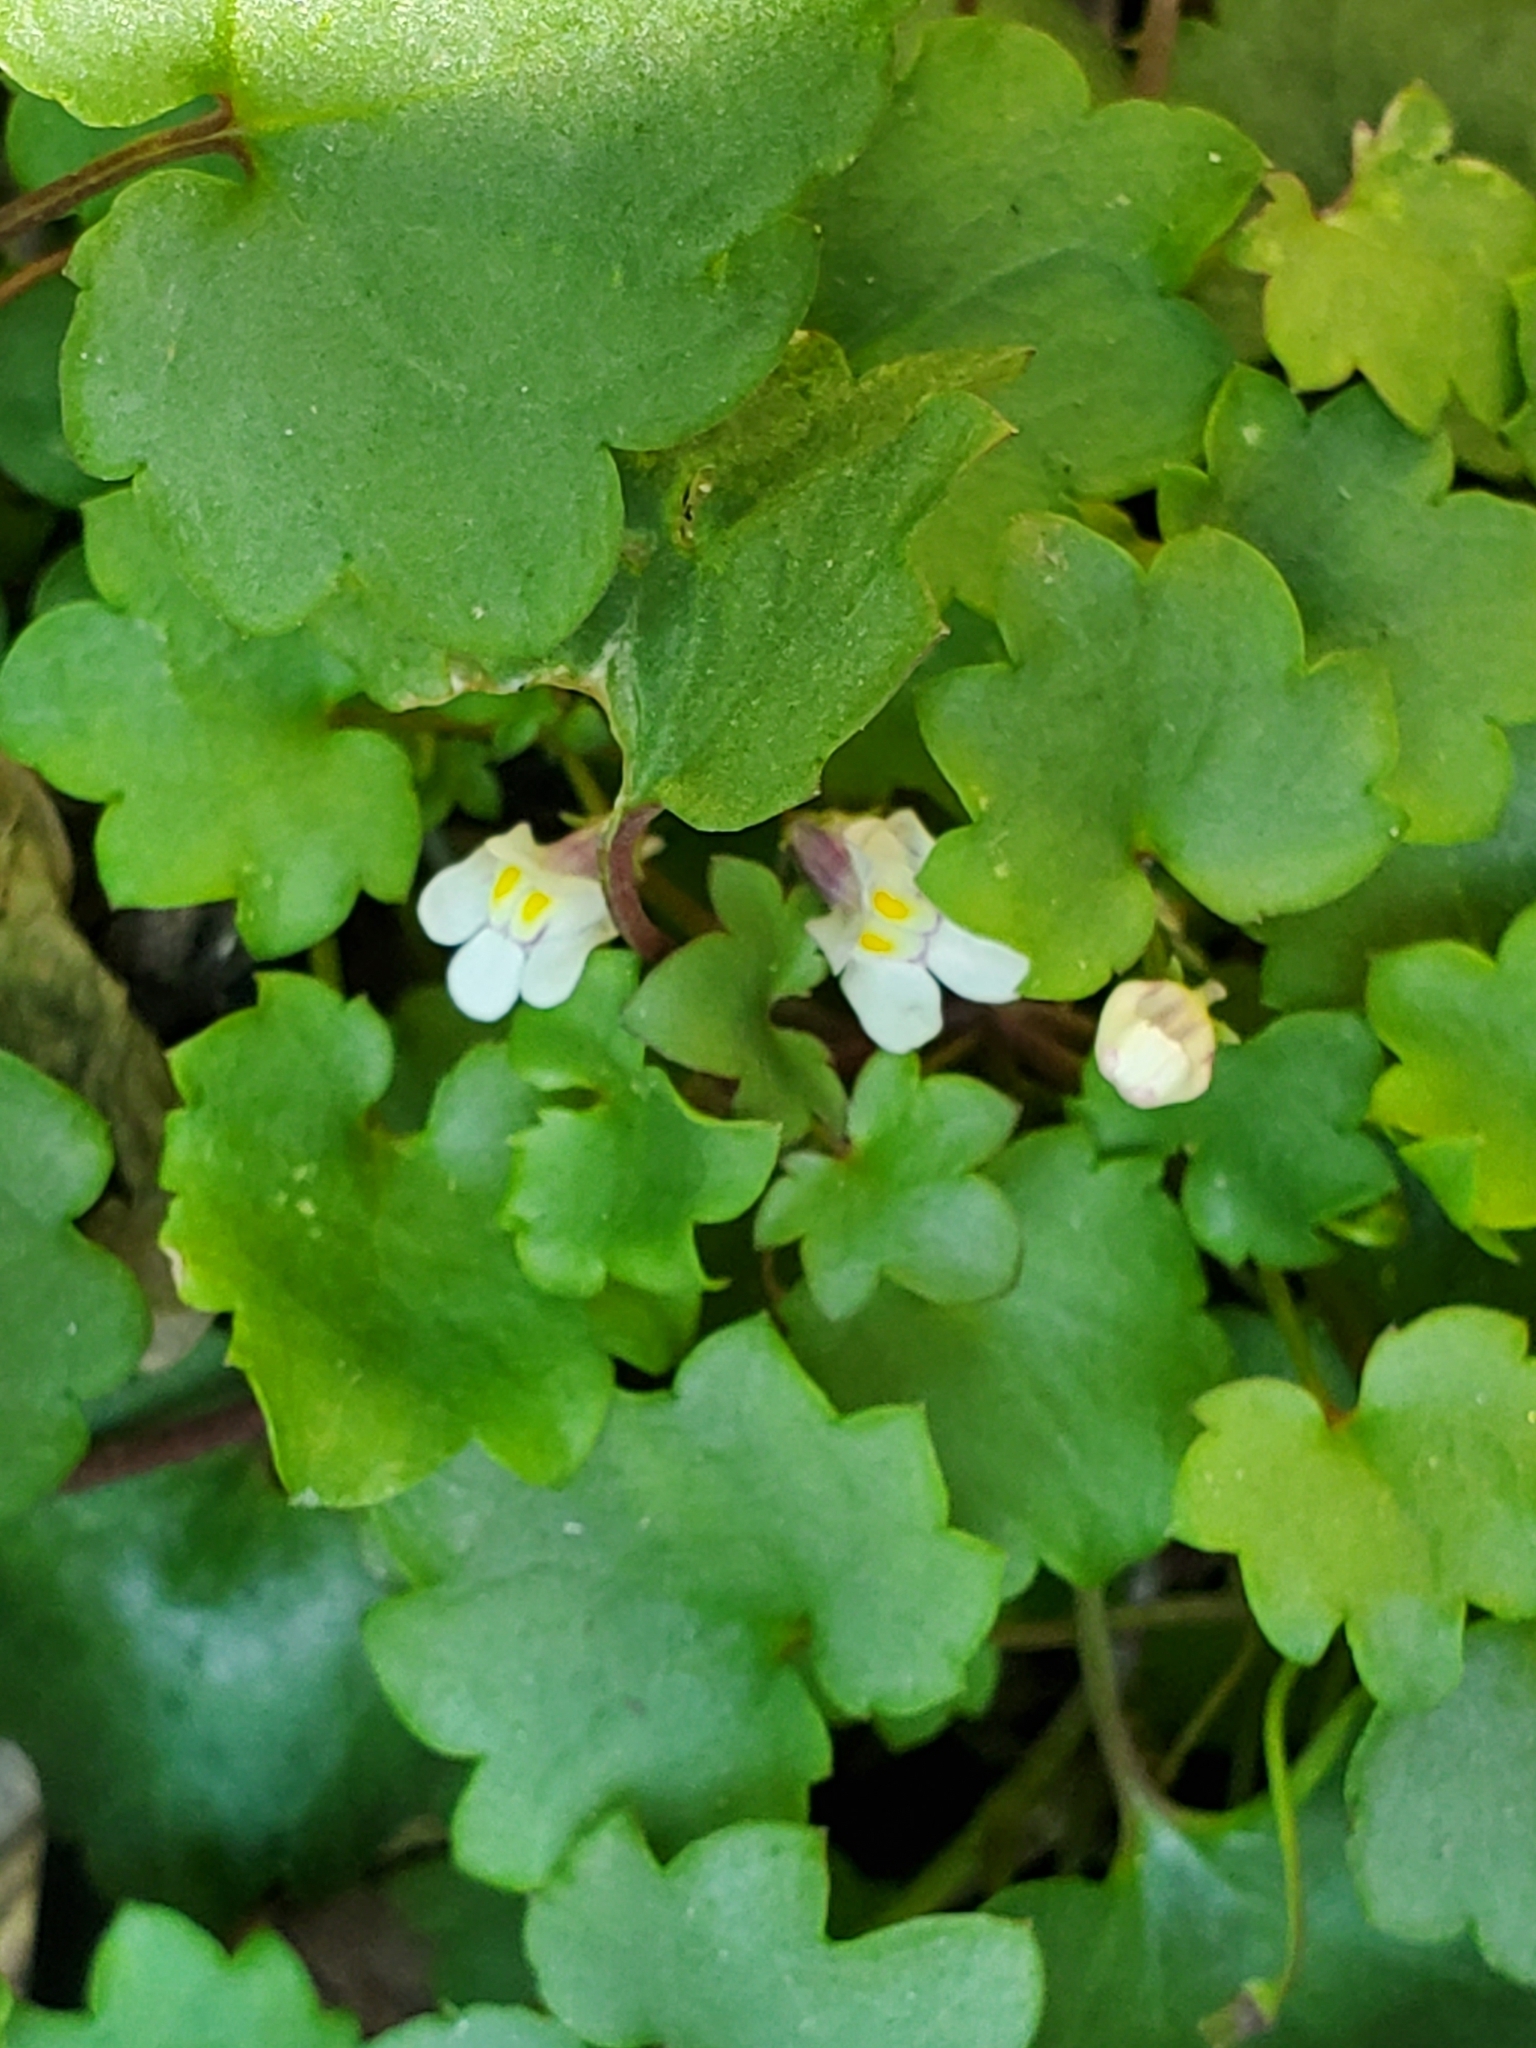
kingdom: Plantae
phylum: Tracheophyta
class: Magnoliopsida
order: Lamiales
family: Plantaginaceae
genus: Cymbalaria
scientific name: Cymbalaria muralis
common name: Ivy-leaved toadflax
